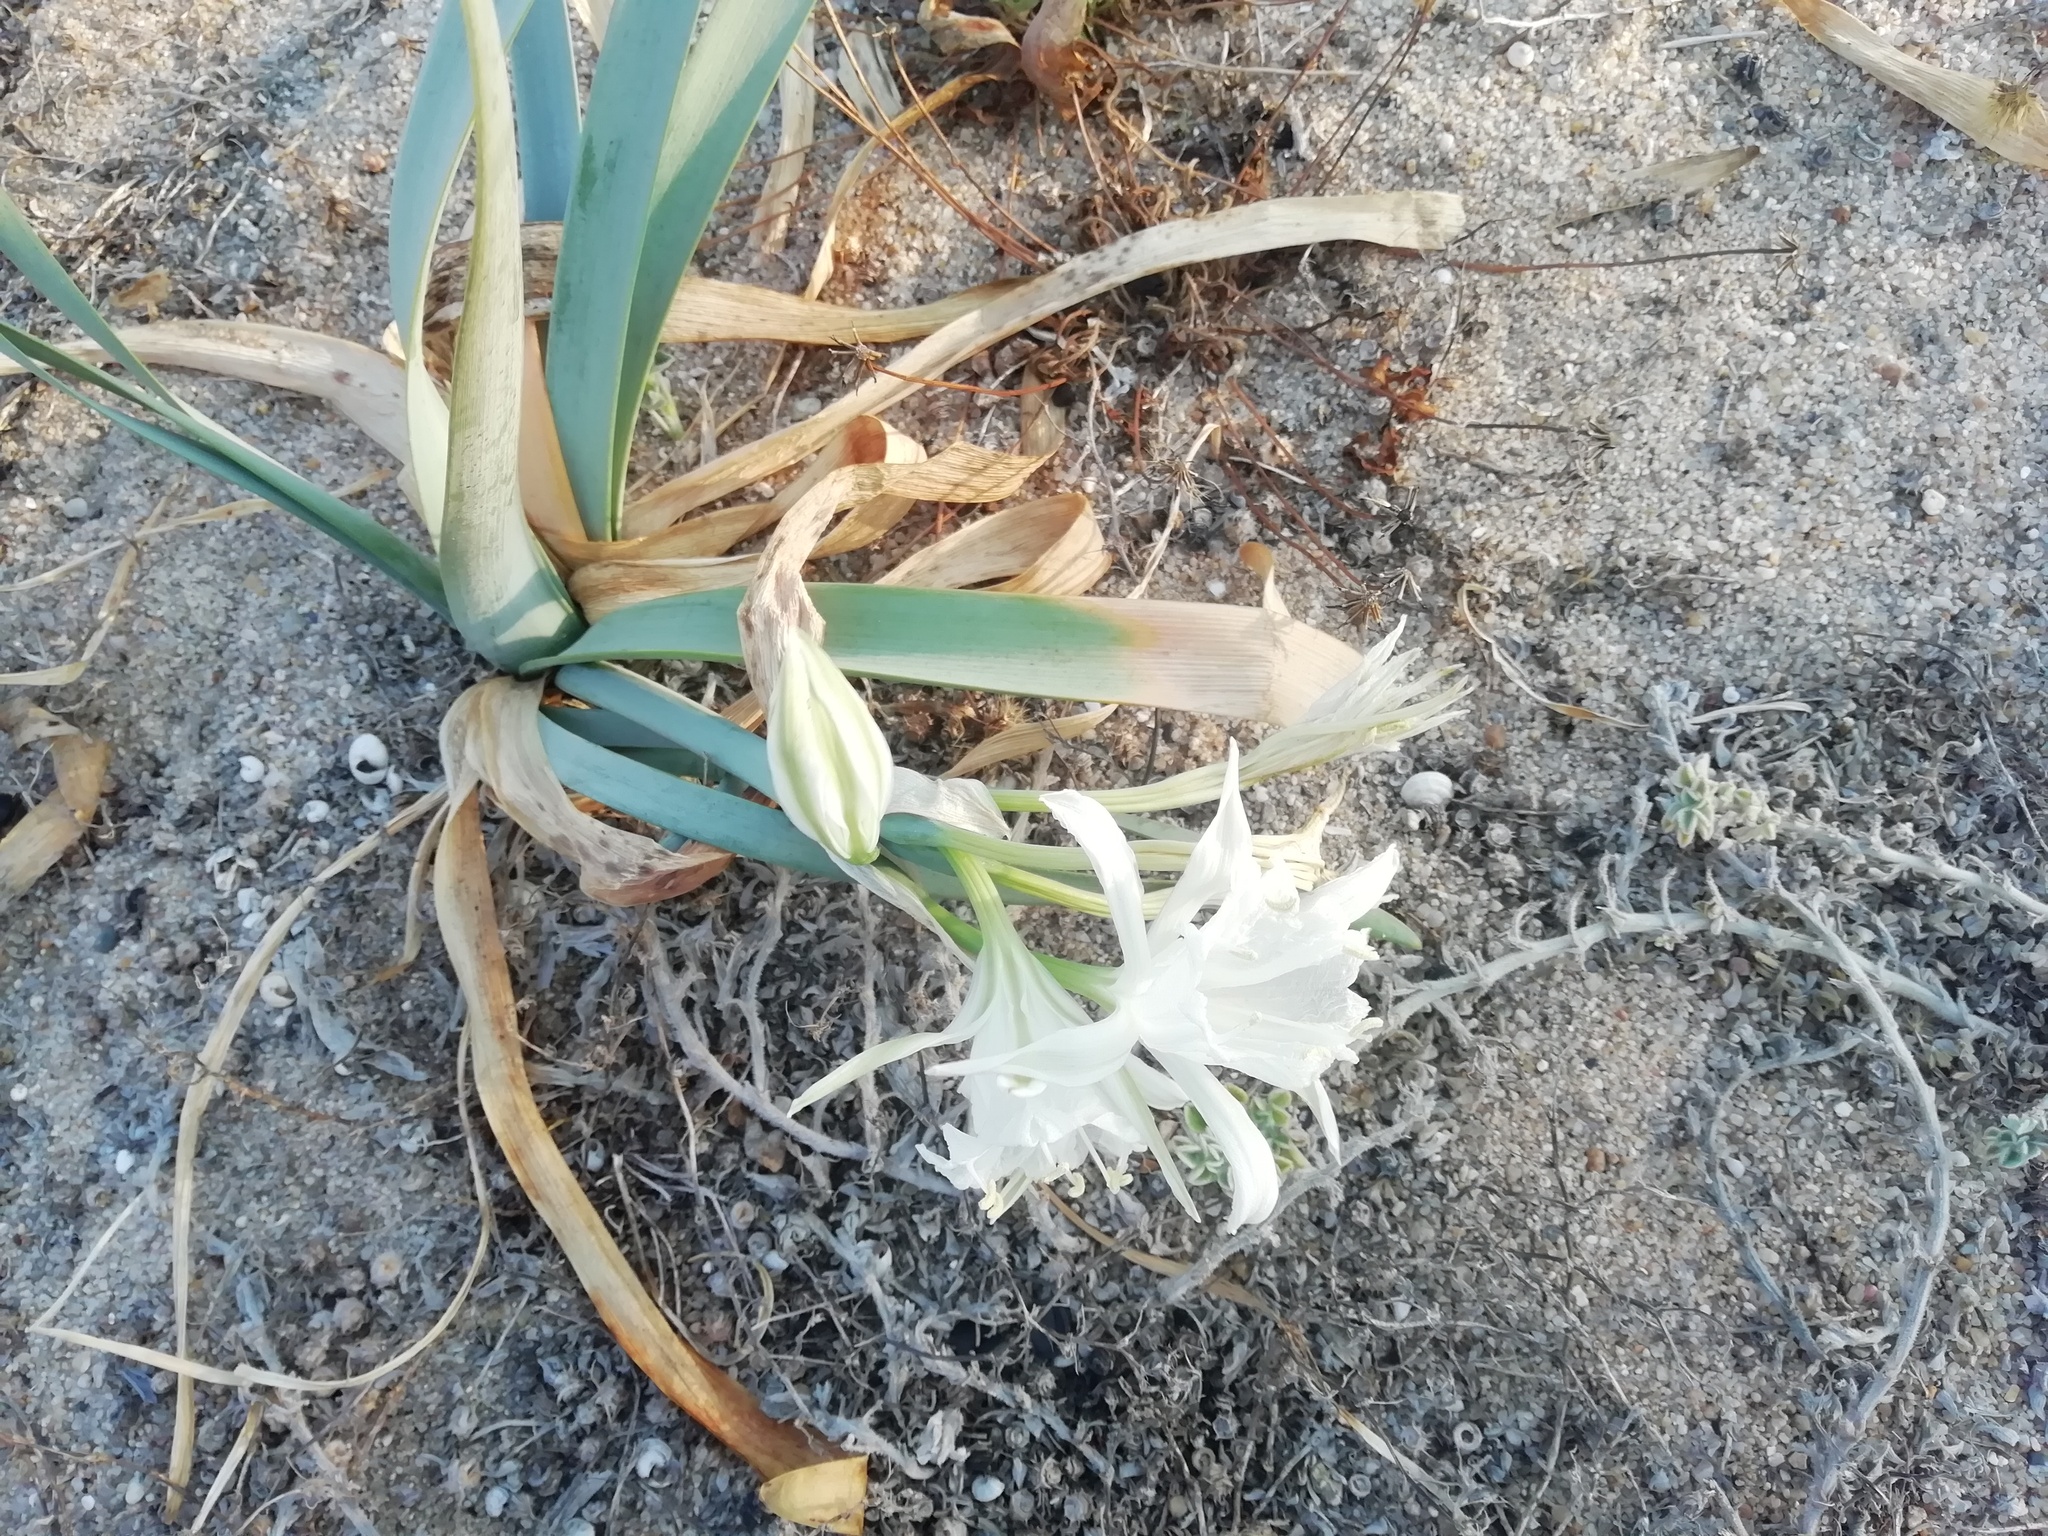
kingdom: Plantae
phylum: Tracheophyta
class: Liliopsida
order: Asparagales
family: Amaryllidaceae
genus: Pancratium
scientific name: Pancratium maritimum
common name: Sea-daffodil
